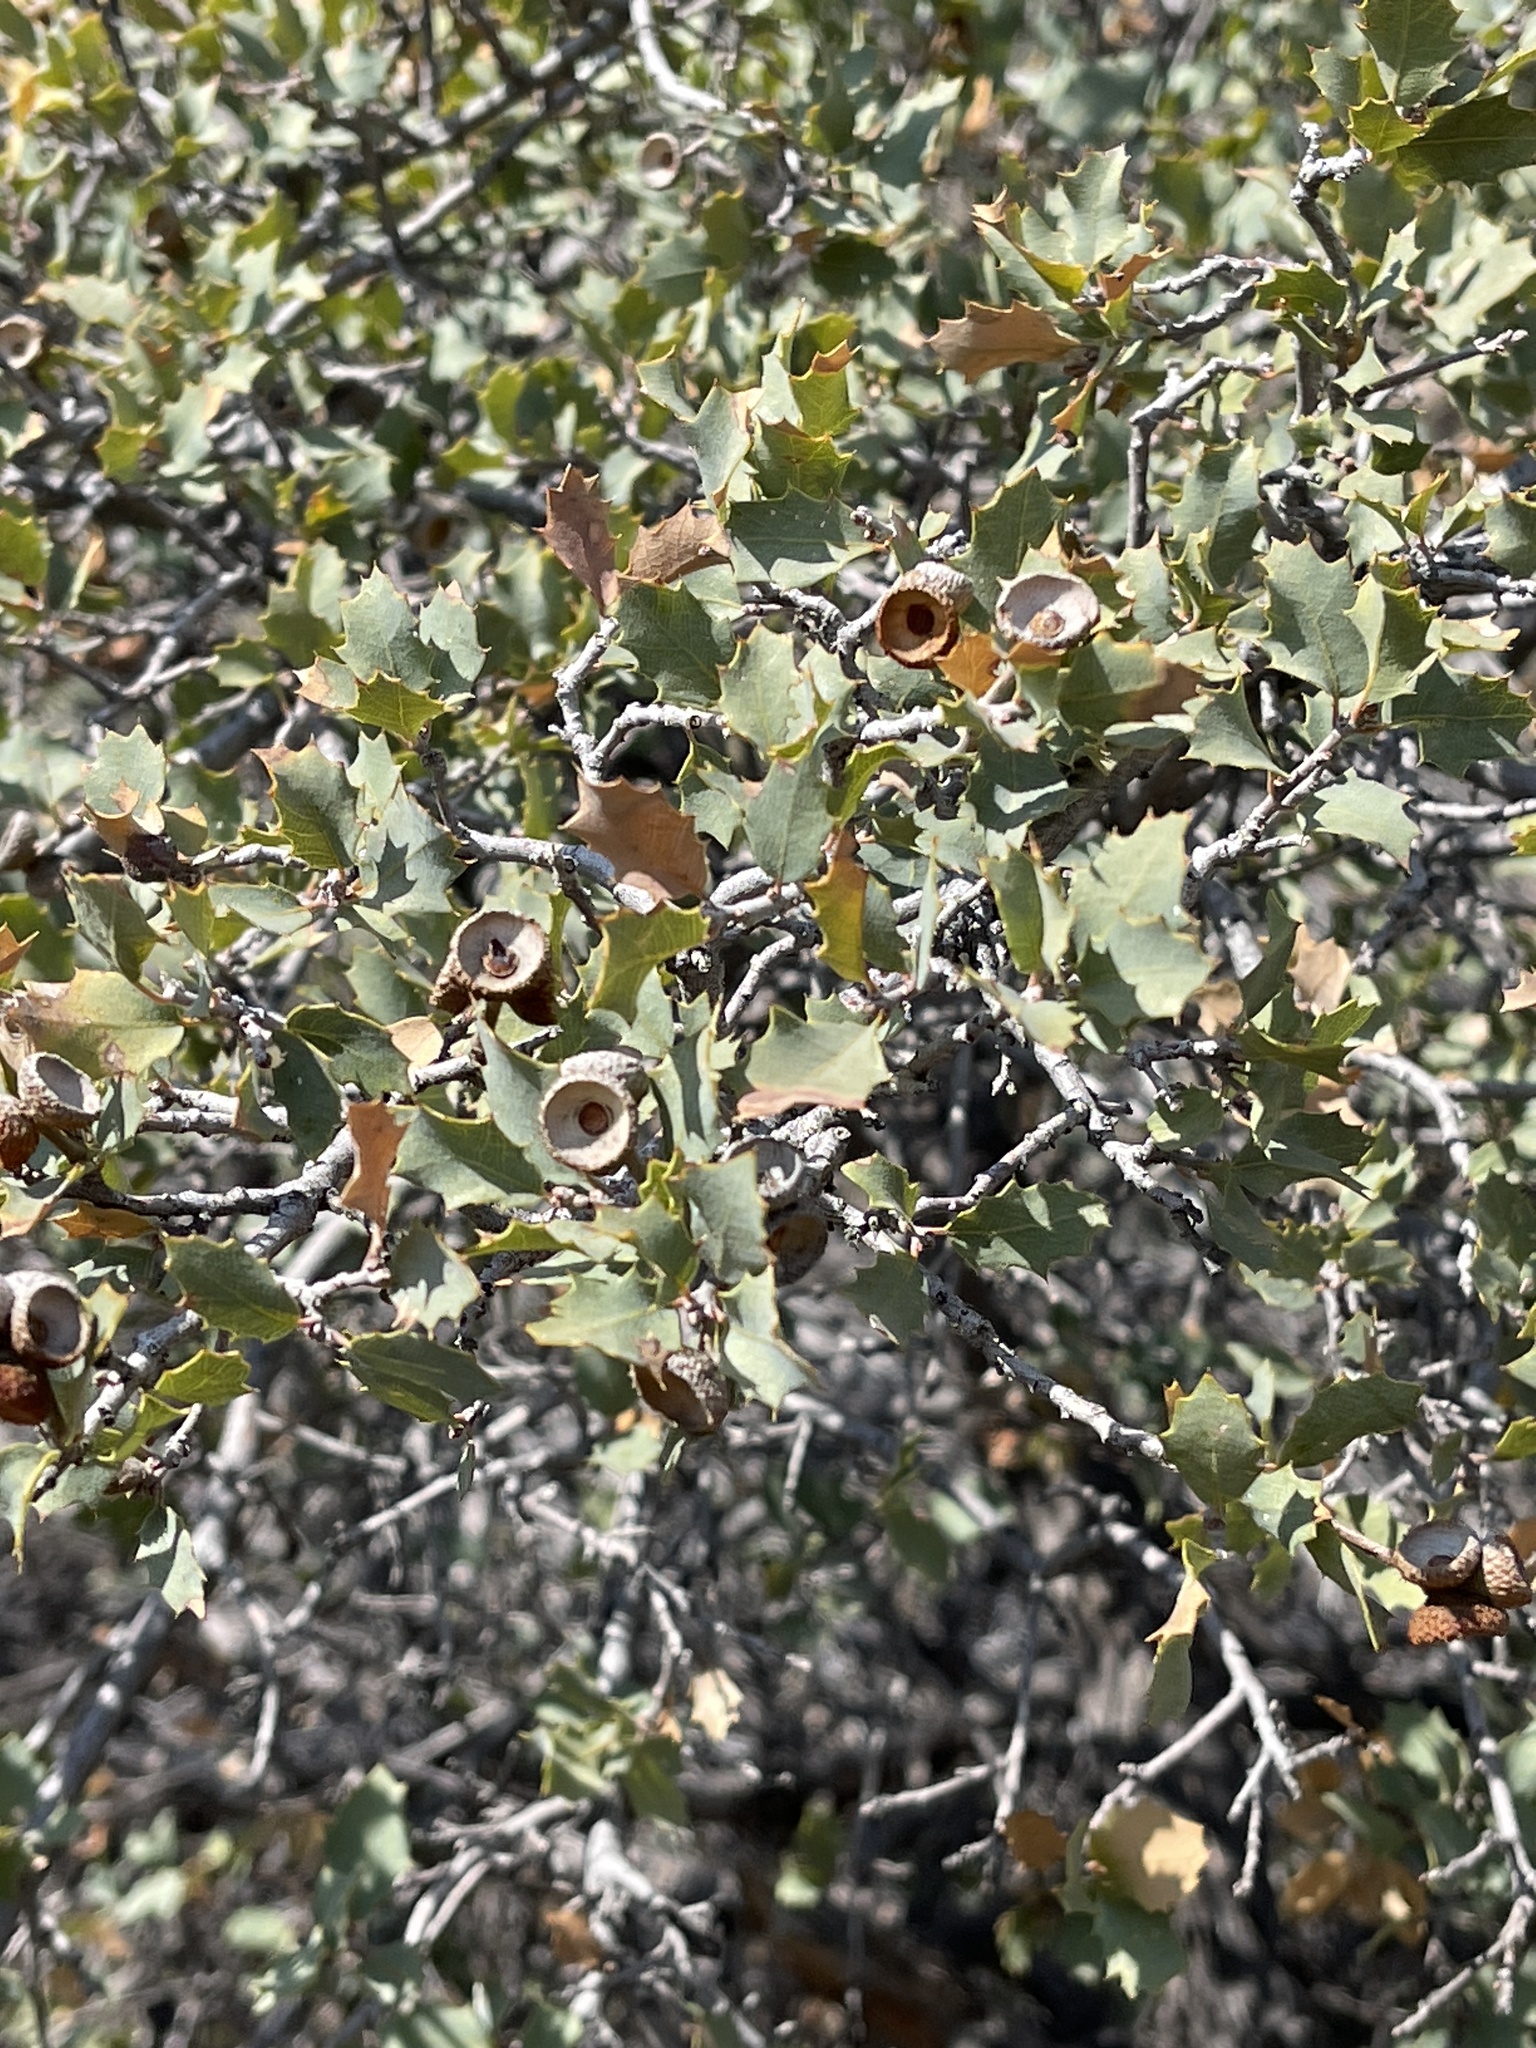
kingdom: Plantae
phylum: Tracheophyta
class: Magnoliopsida
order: Fagales
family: Fagaceae
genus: Quercus
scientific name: Quercus turbinella
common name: Sonoran scrub oak
